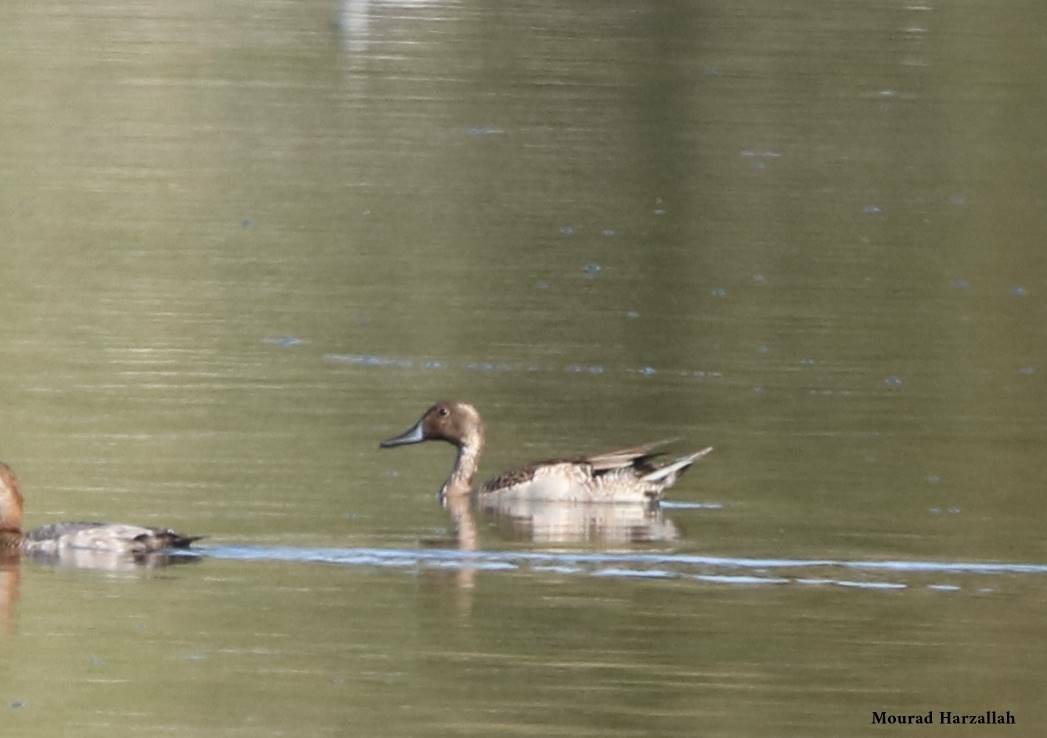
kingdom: Animalia
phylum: Chordata
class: Aves
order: Anseriformes
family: Anatidae
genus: Anas
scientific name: Anas acuta
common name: Northern pintail
